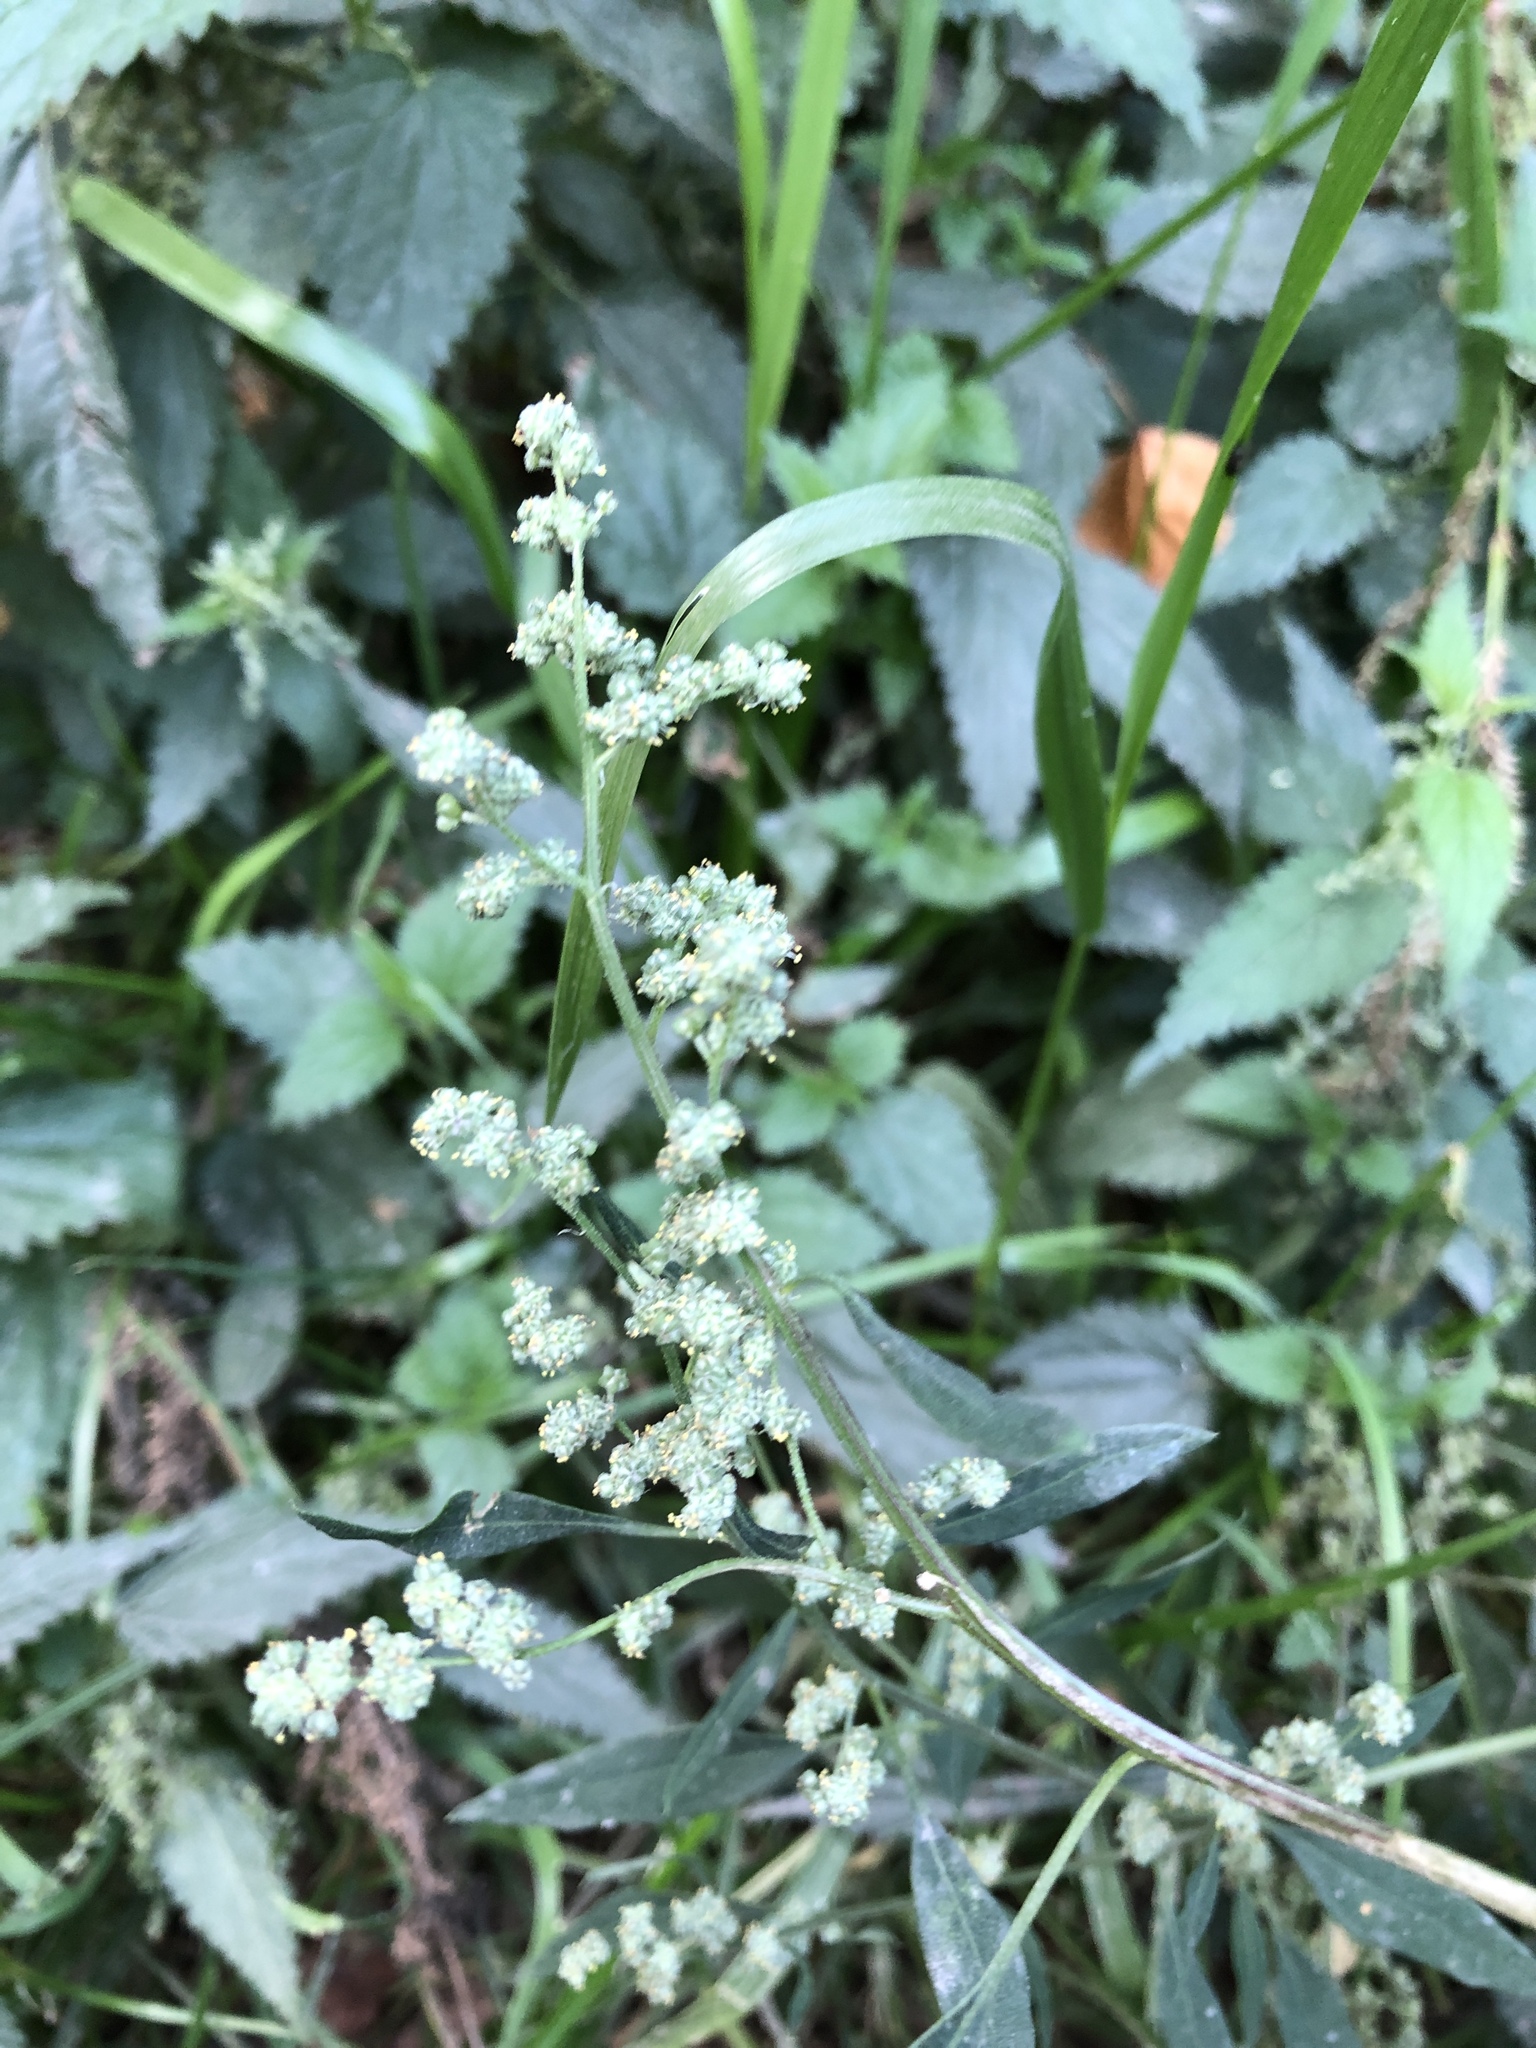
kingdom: Plantae
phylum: Tracheophyta
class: Magnoliopsida
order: Caryophyllales
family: Amaranthaceae
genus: Chenopodium
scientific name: Chenopodium album
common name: Fat-hen
